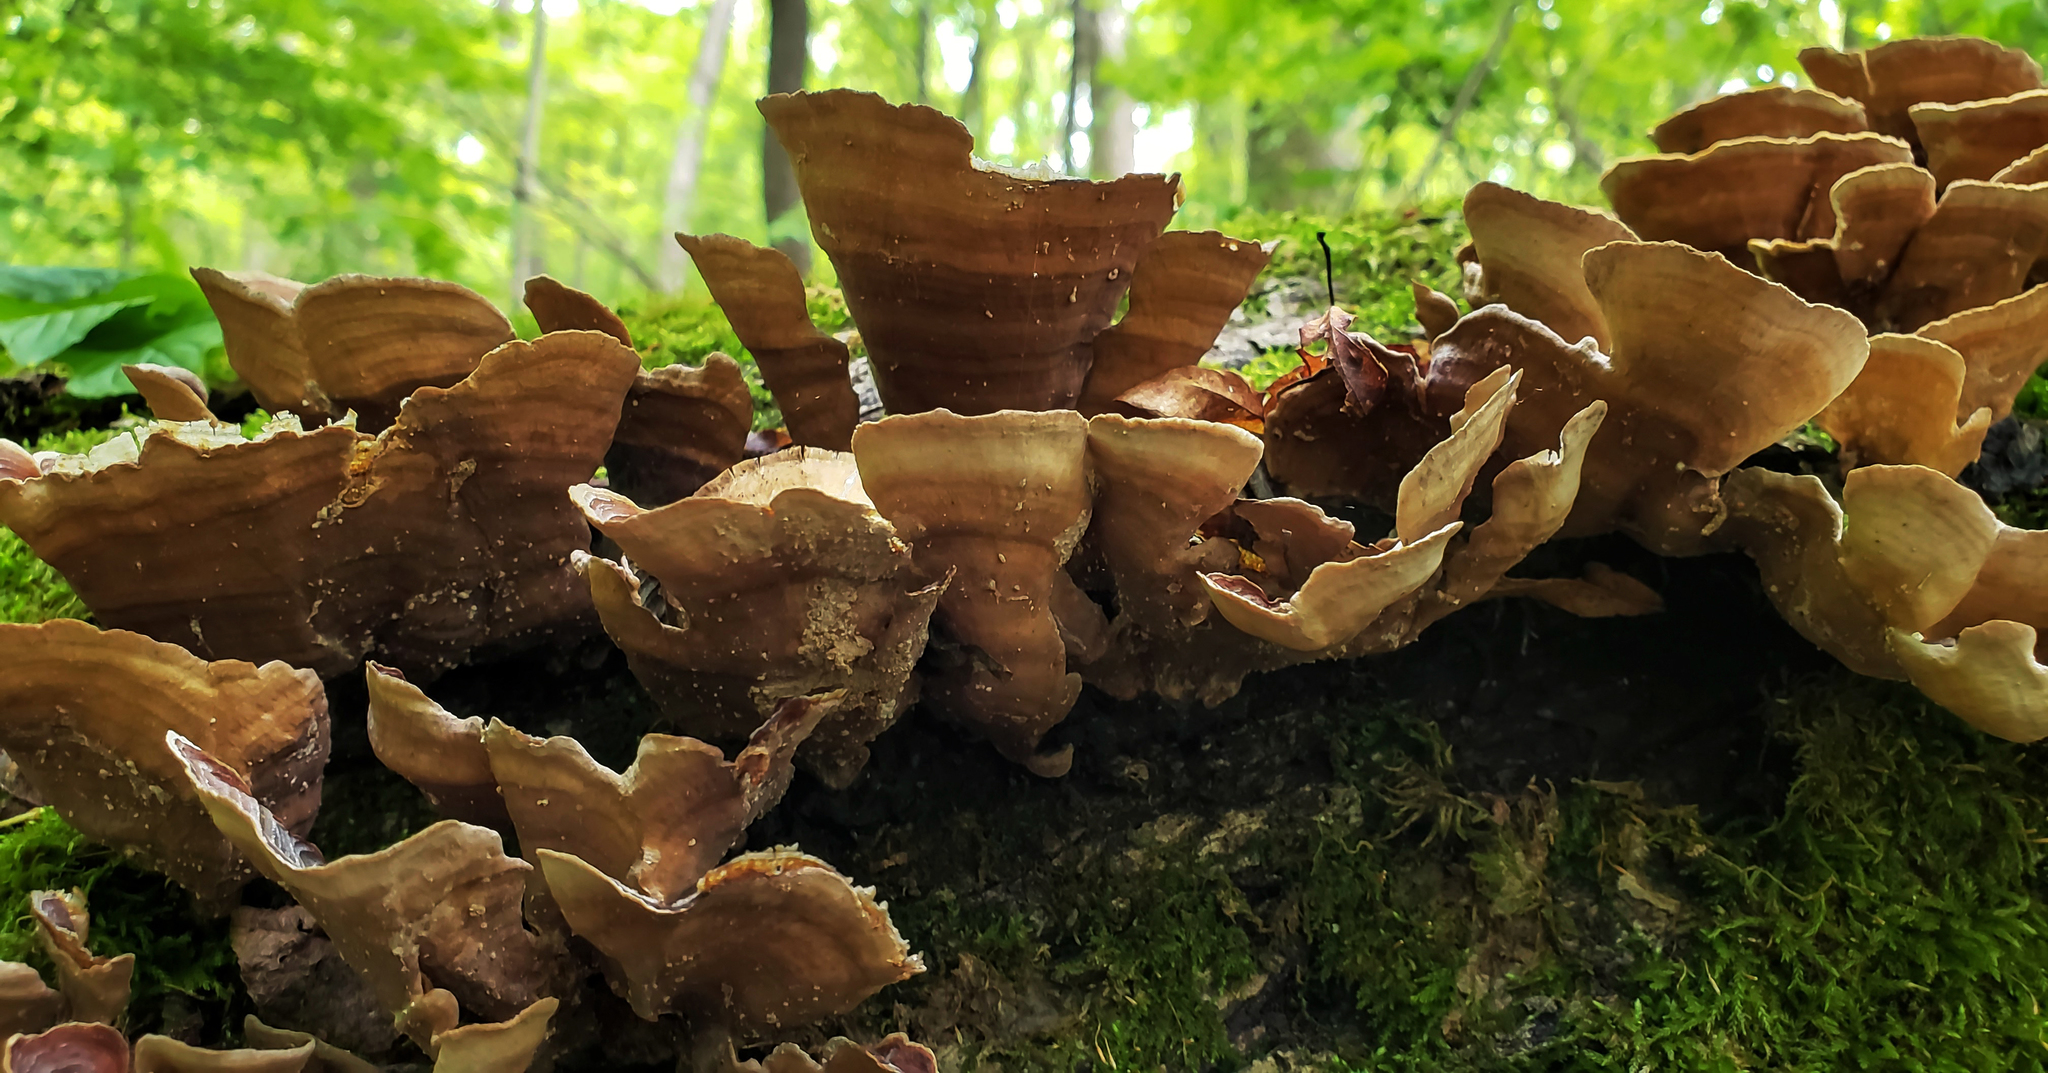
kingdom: Fungi
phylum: Basidiomycota
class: Agaricomycetes
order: Russulales
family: Stereaceae
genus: Stereum
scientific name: Stereum ostrea
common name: False turkeytail
